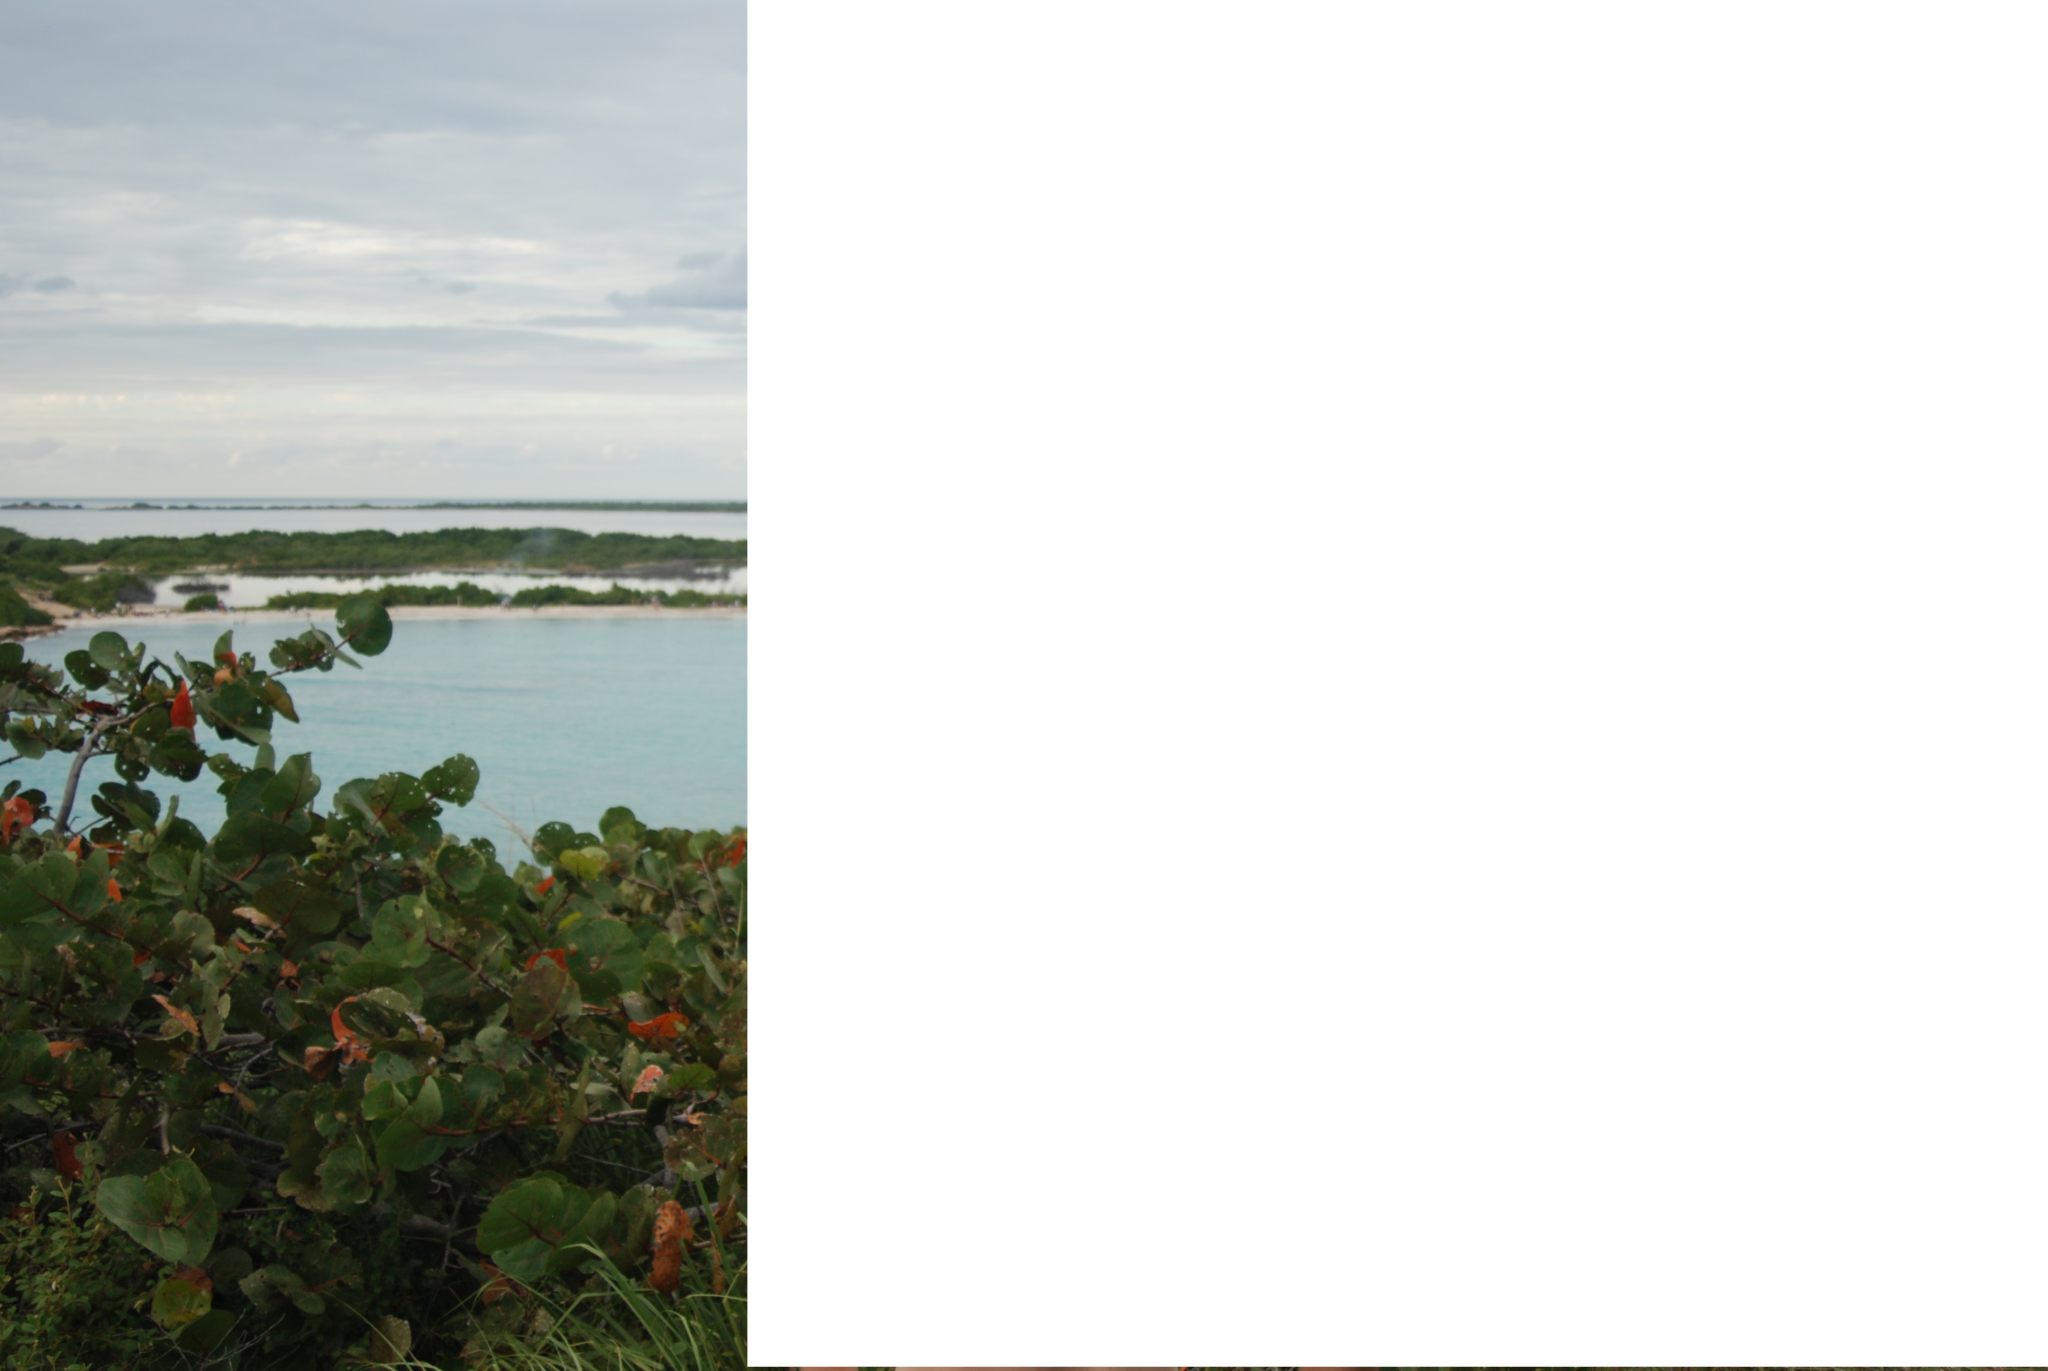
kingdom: Plantae
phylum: Tracheophyta
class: Magnoliopsida
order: Caryophyllales
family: Polygonaceae
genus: Coccoloba
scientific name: Coccoloba uvifera
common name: Seagrape
